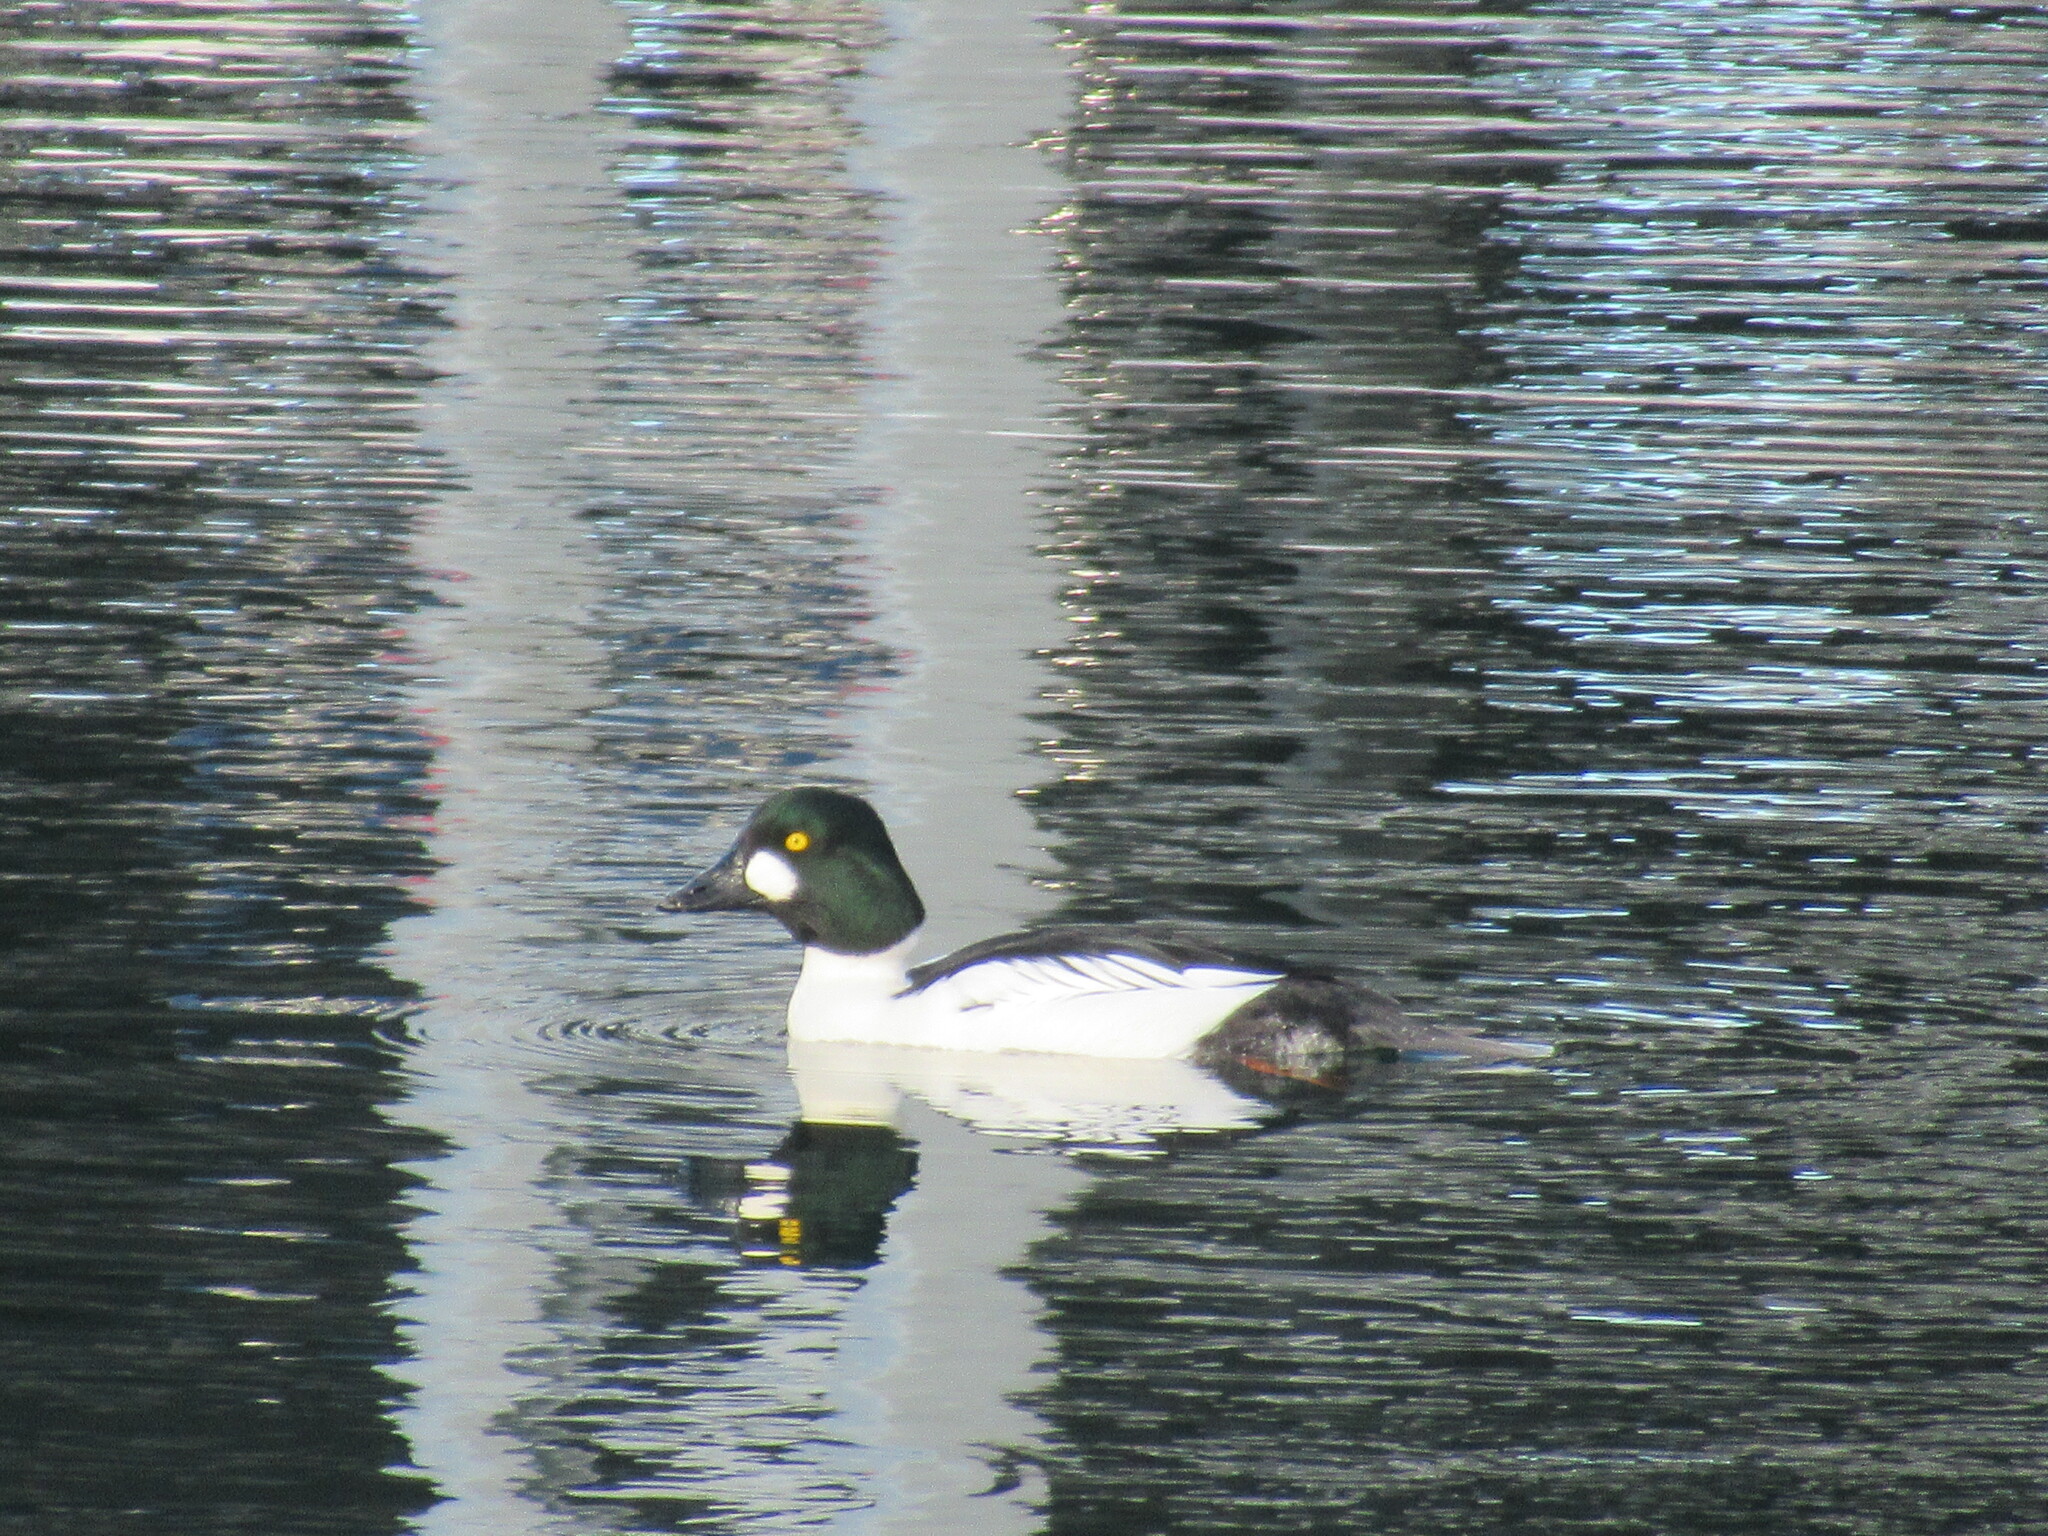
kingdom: Animalia
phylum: Chordata
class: Aves
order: Anseriformes
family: Anatidae
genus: Bucephala
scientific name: Bucephala clangula
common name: Common goldeneye
